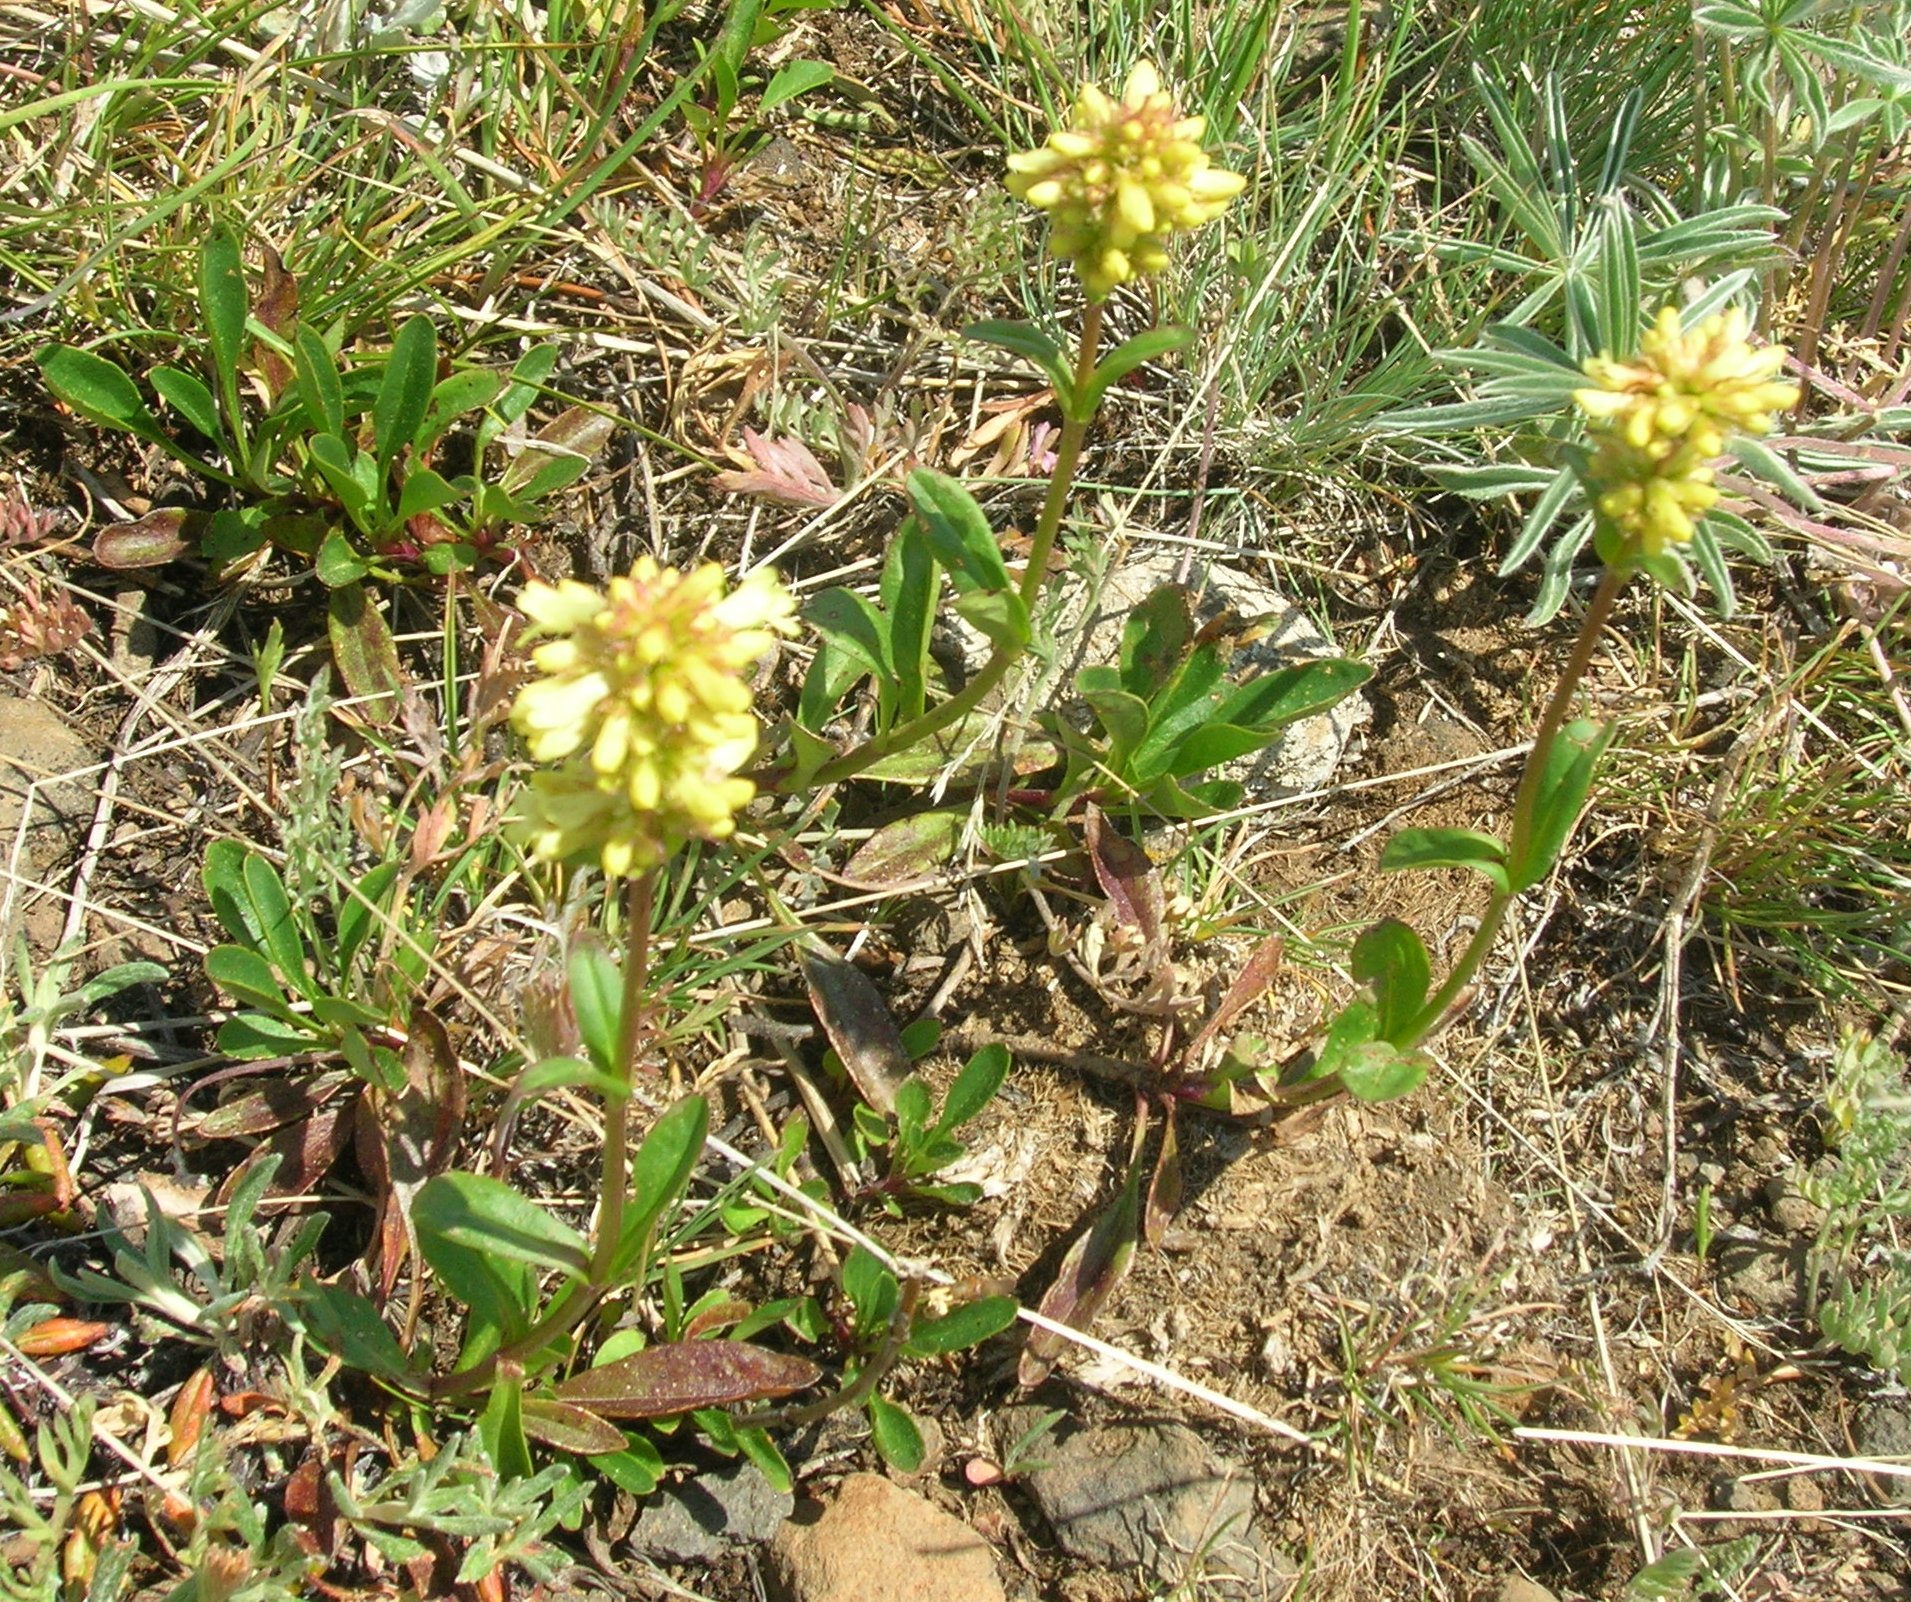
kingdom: Plantae
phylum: Tracheophyta
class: Magnoliopsida
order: Lamiales
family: Plantaginaceae
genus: Penstemon
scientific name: Penstemon confertus
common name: Lesser yellow beardtongue
